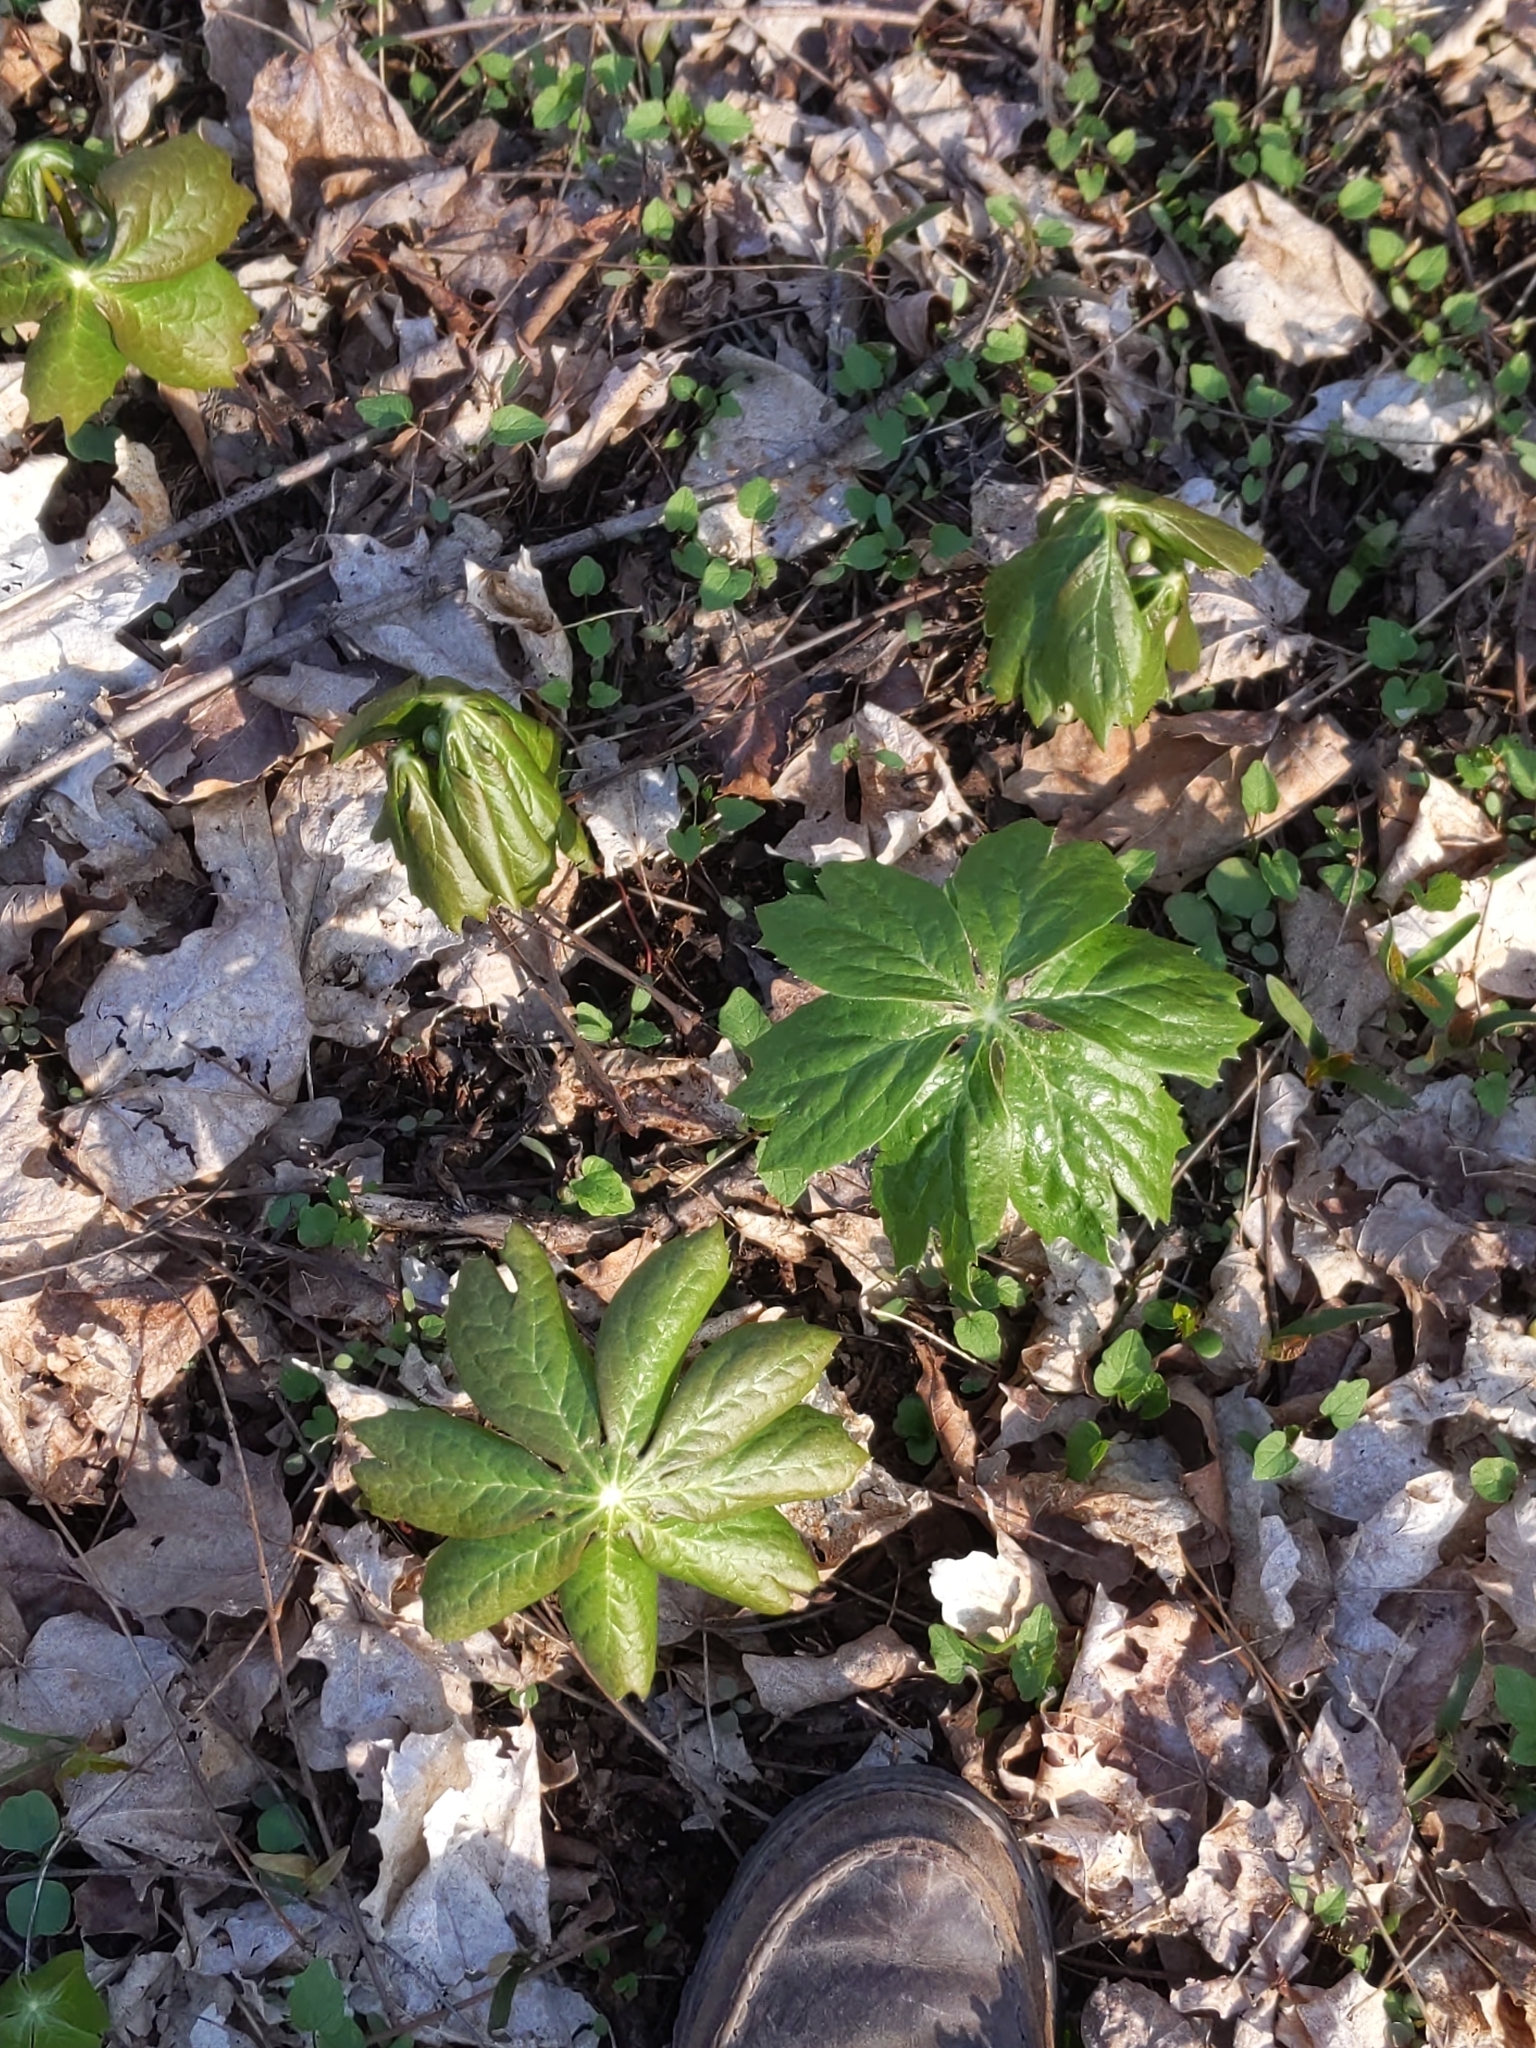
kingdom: Plantae
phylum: Tracheophyta
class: Magnoliopsida
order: Ranunculales
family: Berberidaceae
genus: Podophyllum
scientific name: Podophyllum peltatum
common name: Wild mandrake
